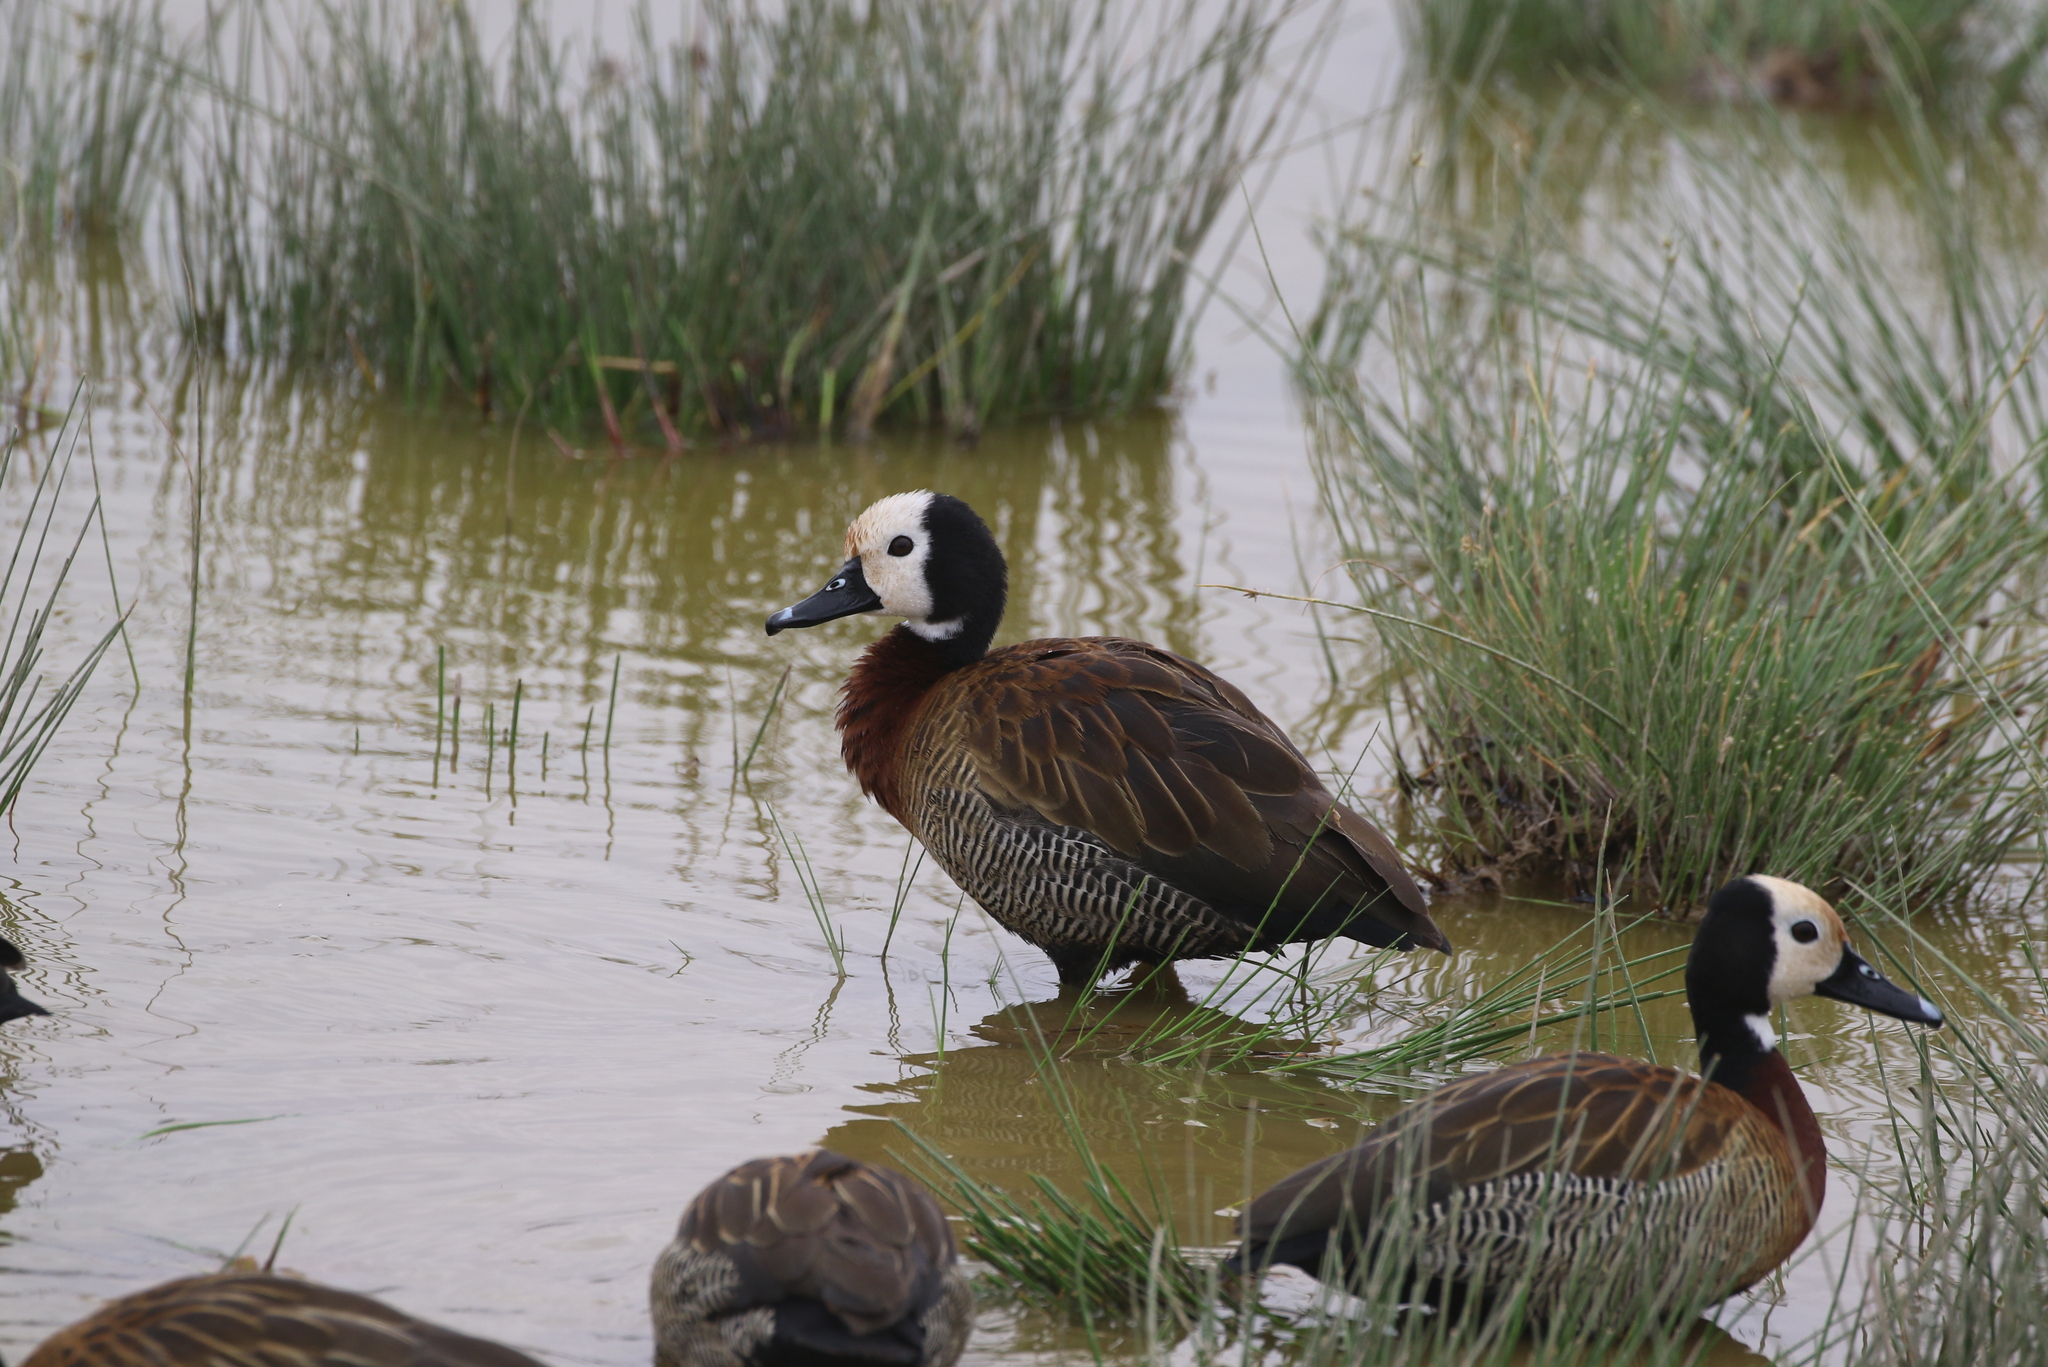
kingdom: Animalia
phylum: Chordata
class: Aves
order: Anseriformes
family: Anatidae
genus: Dendrocygna
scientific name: Dendrocygna viduata
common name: White-faced whistling duck
